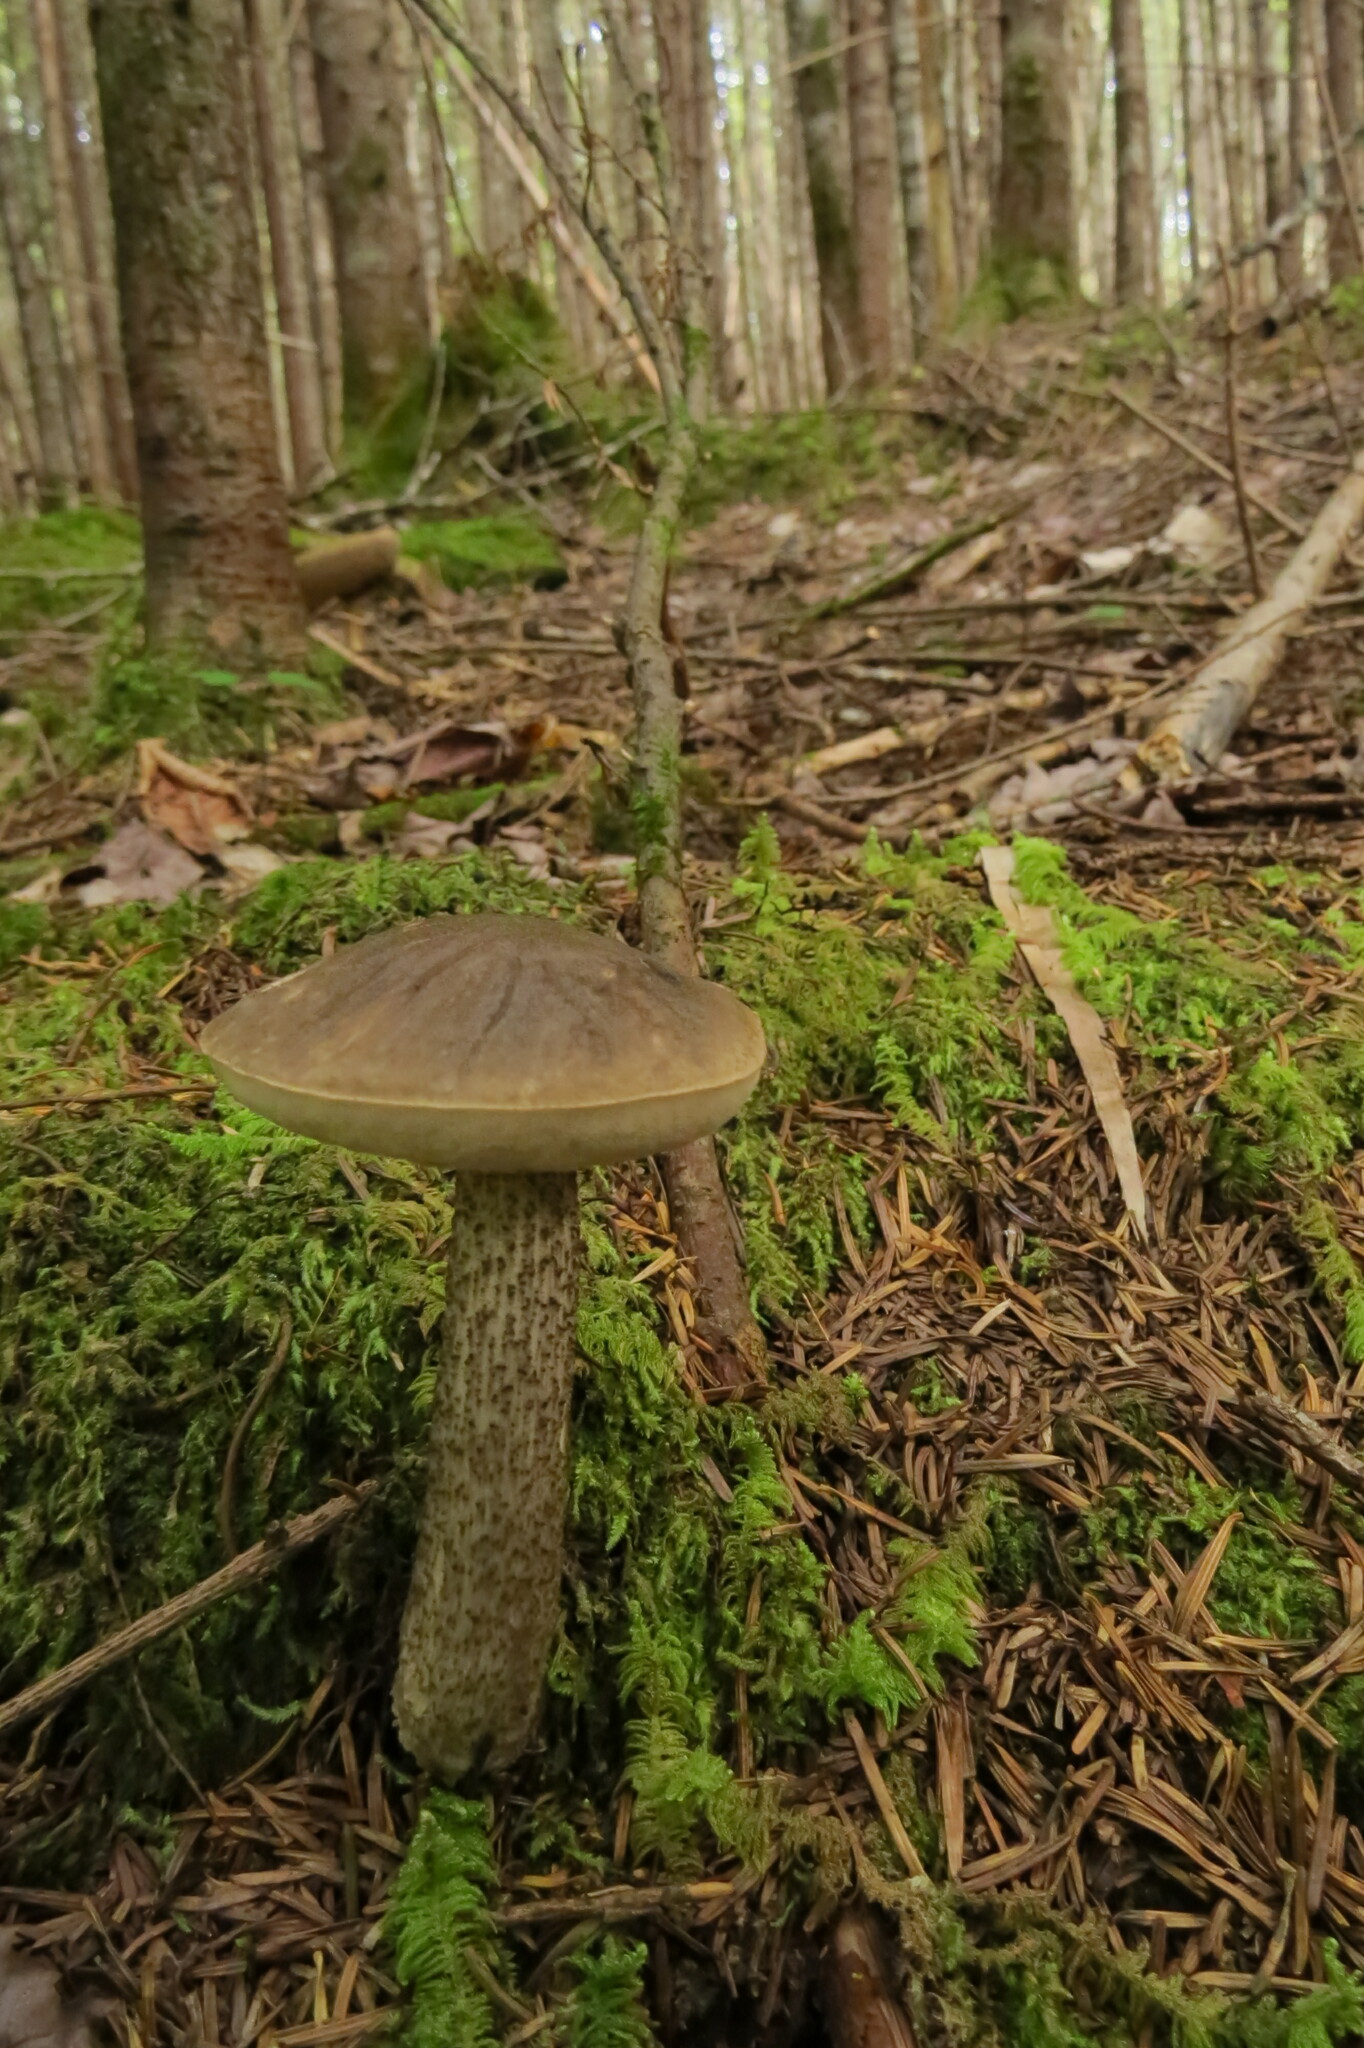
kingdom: Fungi
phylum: Basidiomycota
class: Agaricomycetes
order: Boletales
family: Boletaceae
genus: Leccinum
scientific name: Leccinum scabrum
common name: Blushing bolete
